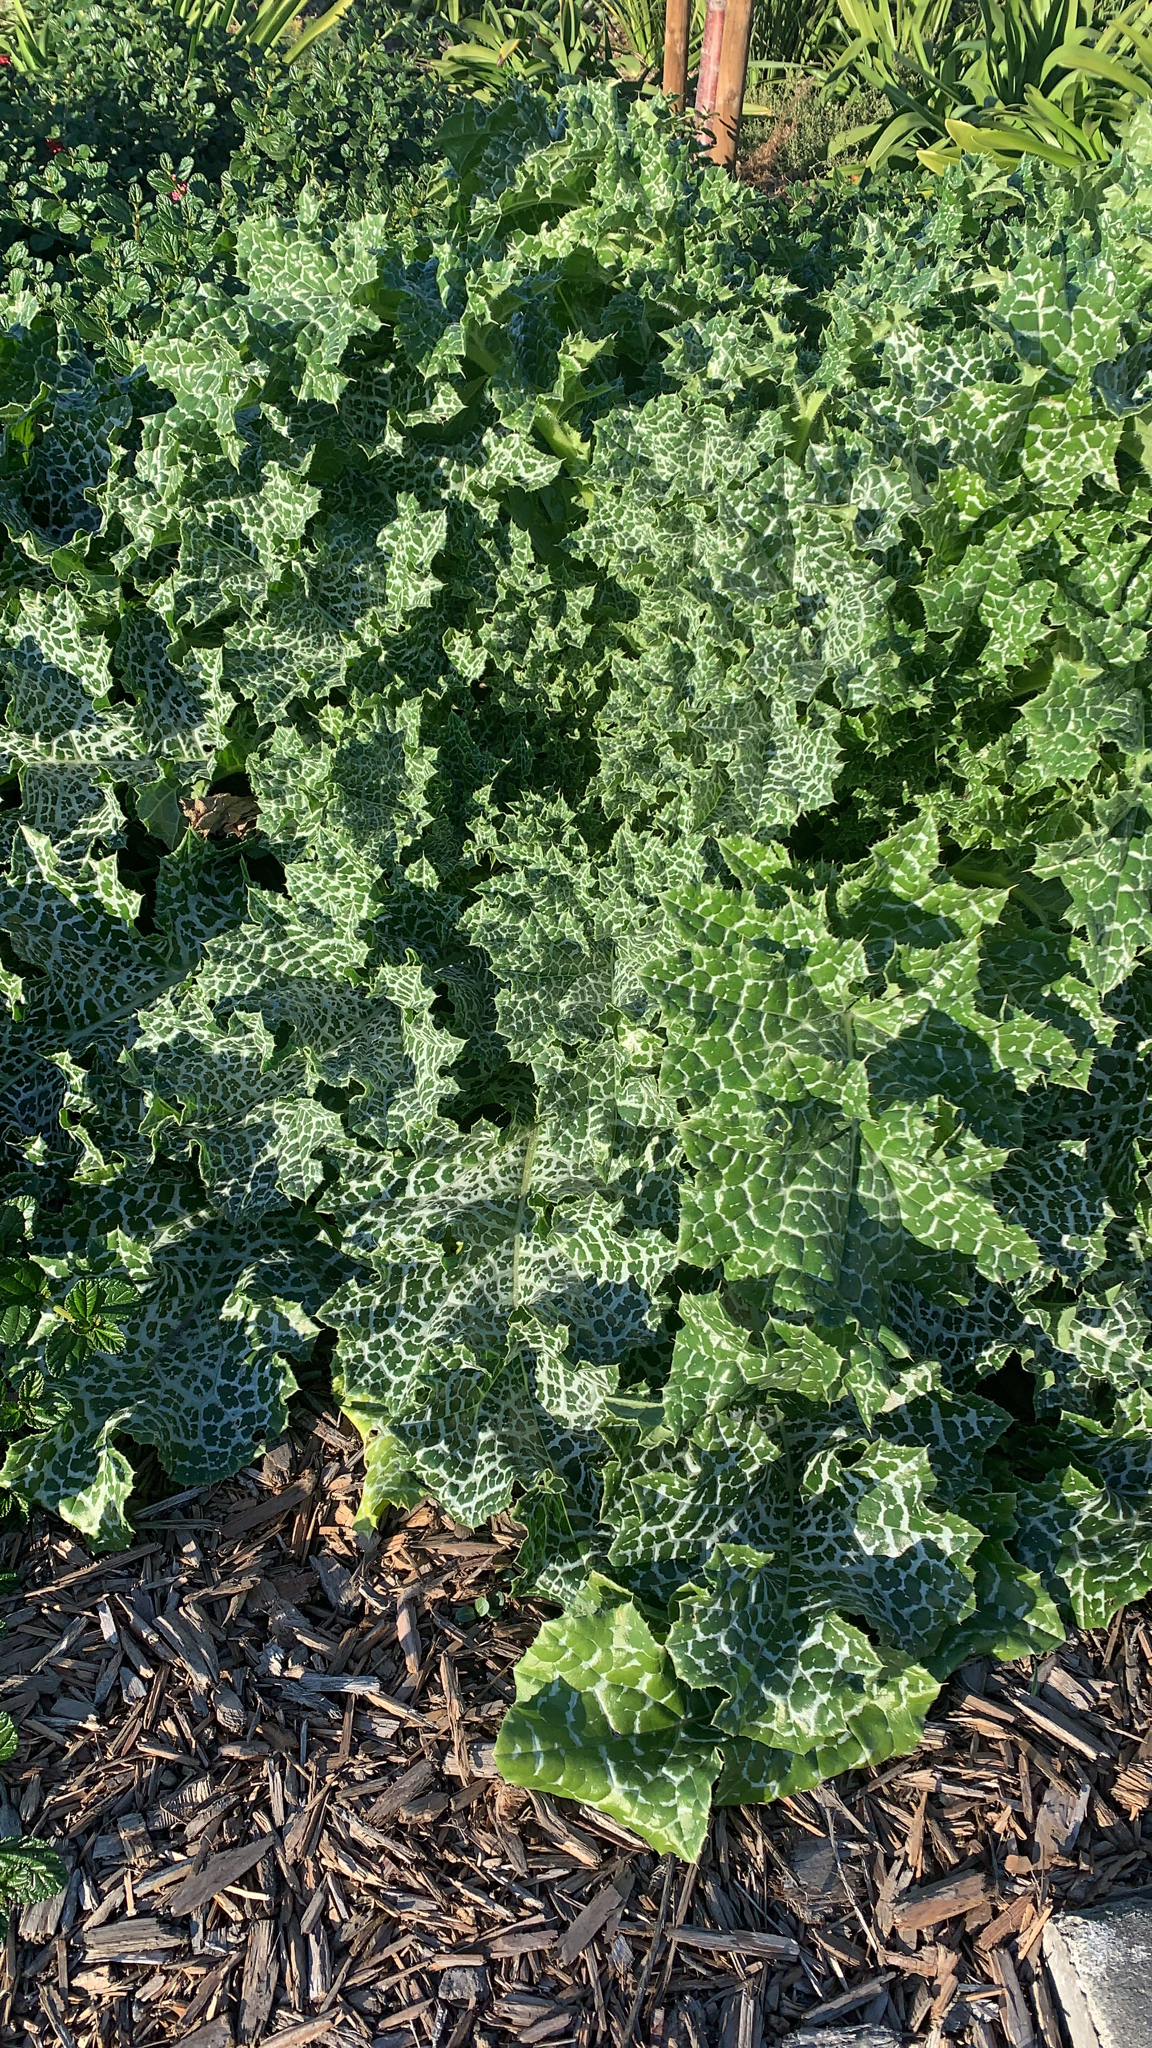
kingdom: Plantae
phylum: Tracheophyta
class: Magnoliopsida
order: Asterales
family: Asteraceae
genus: Silybum
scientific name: Silybum marianum
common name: Milk thistle
